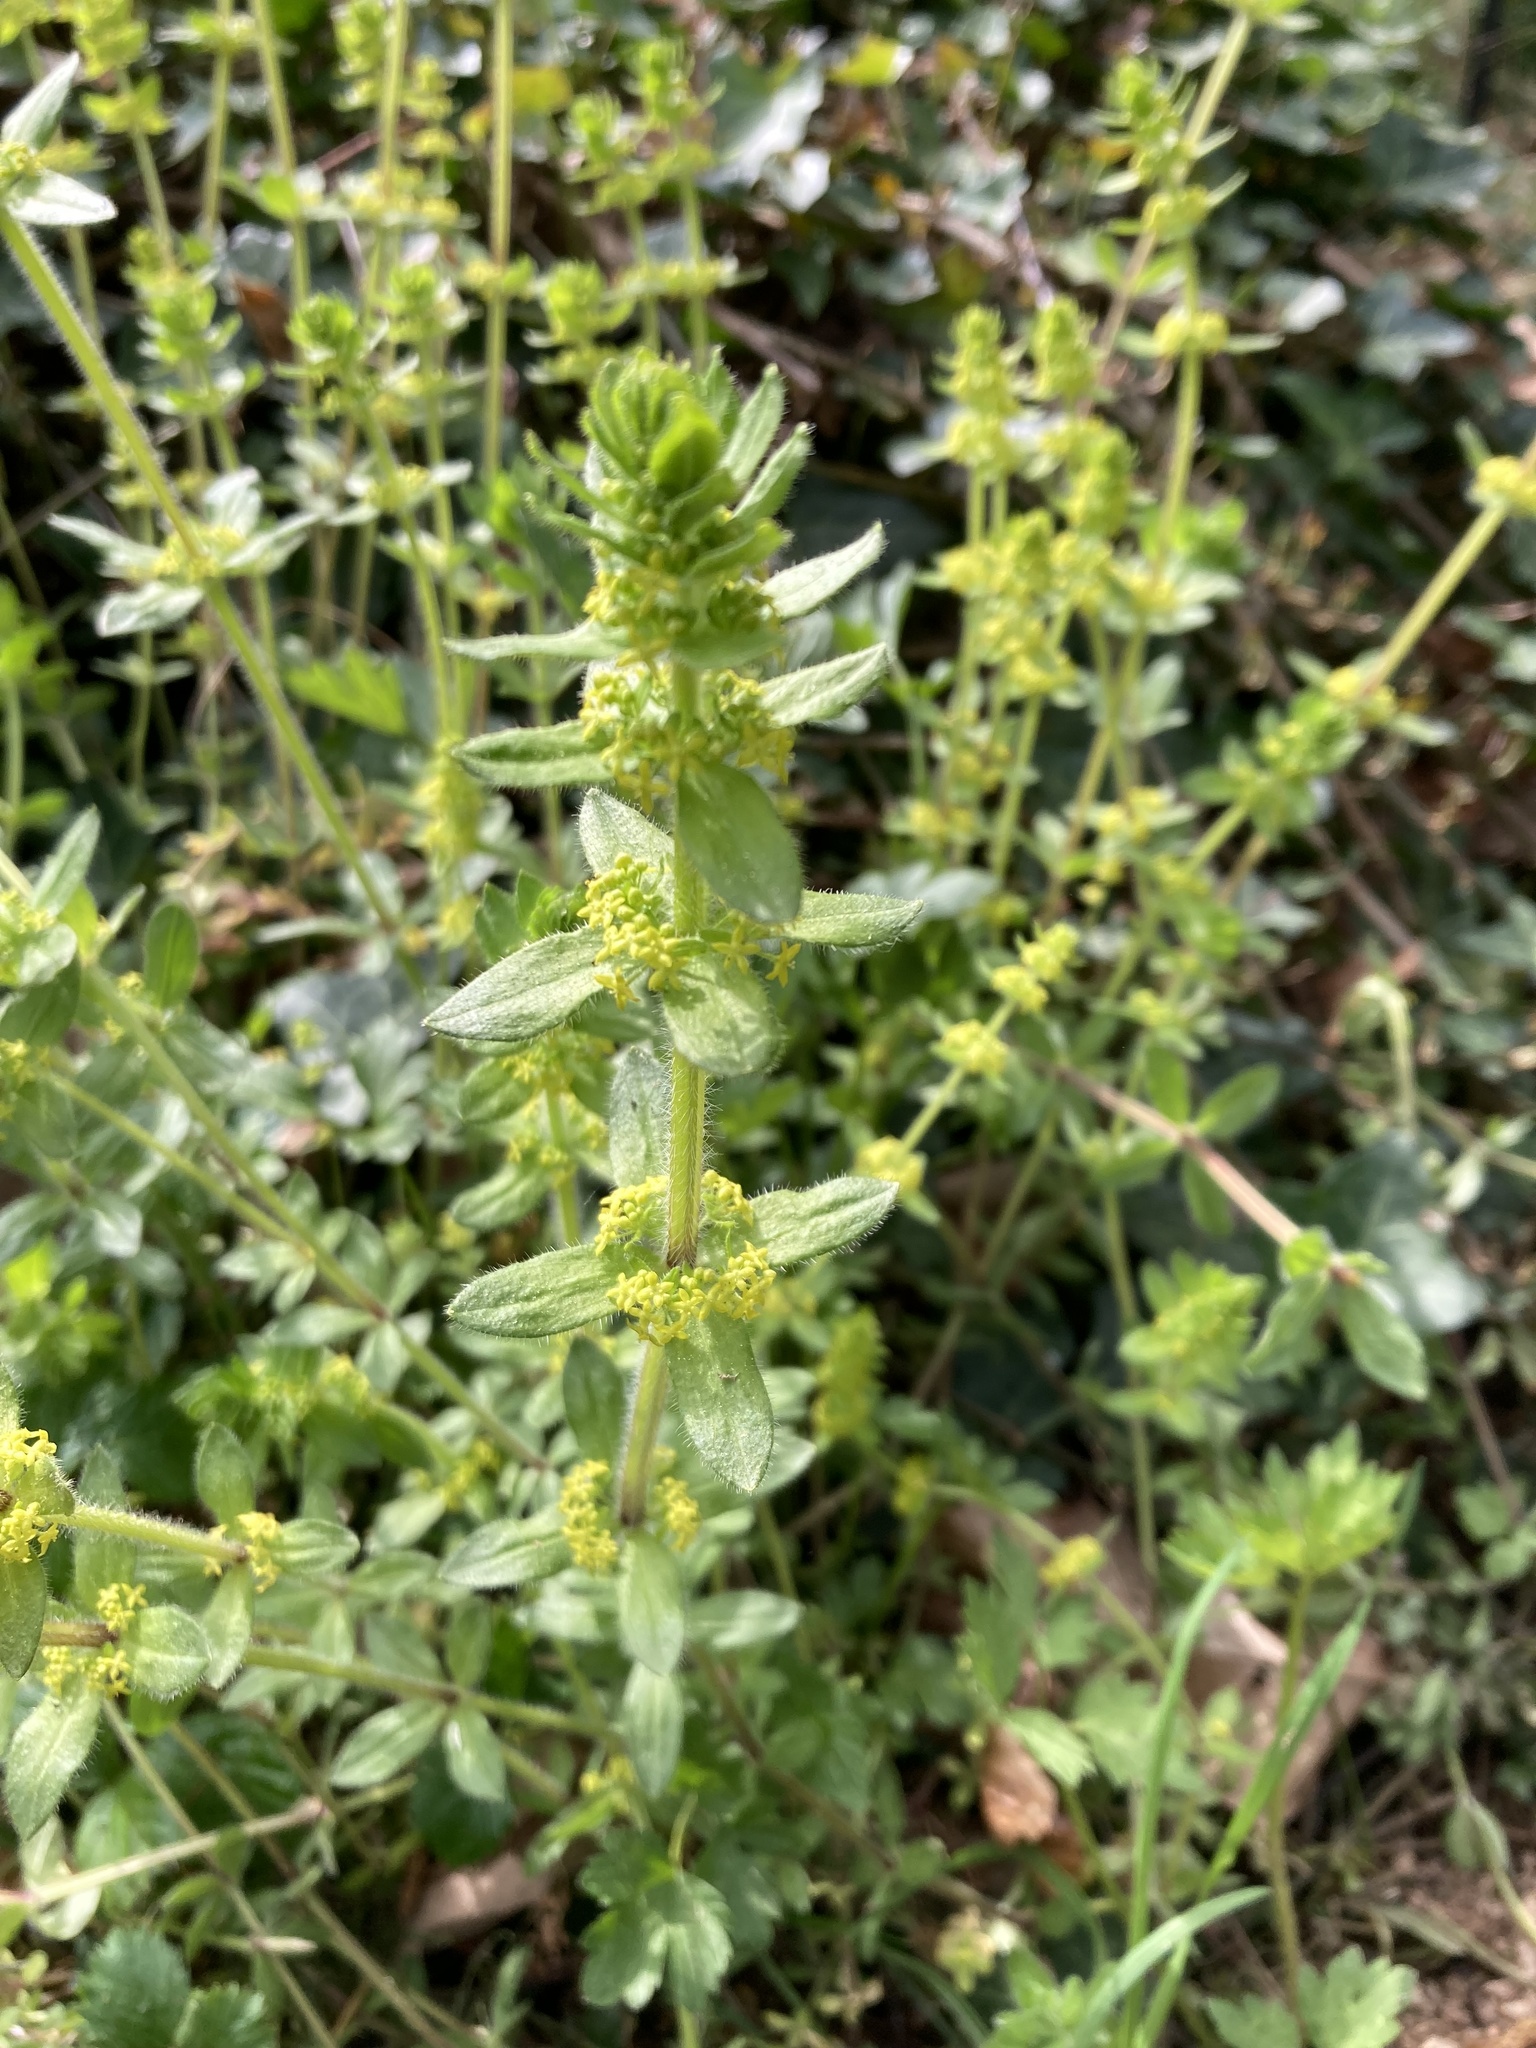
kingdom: Plantae
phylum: Tracheophyta
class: Magnoliopsida
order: Gentianales
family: Rubiaceae
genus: Cruciata
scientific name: Cruciata laevipes
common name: Crosswort
